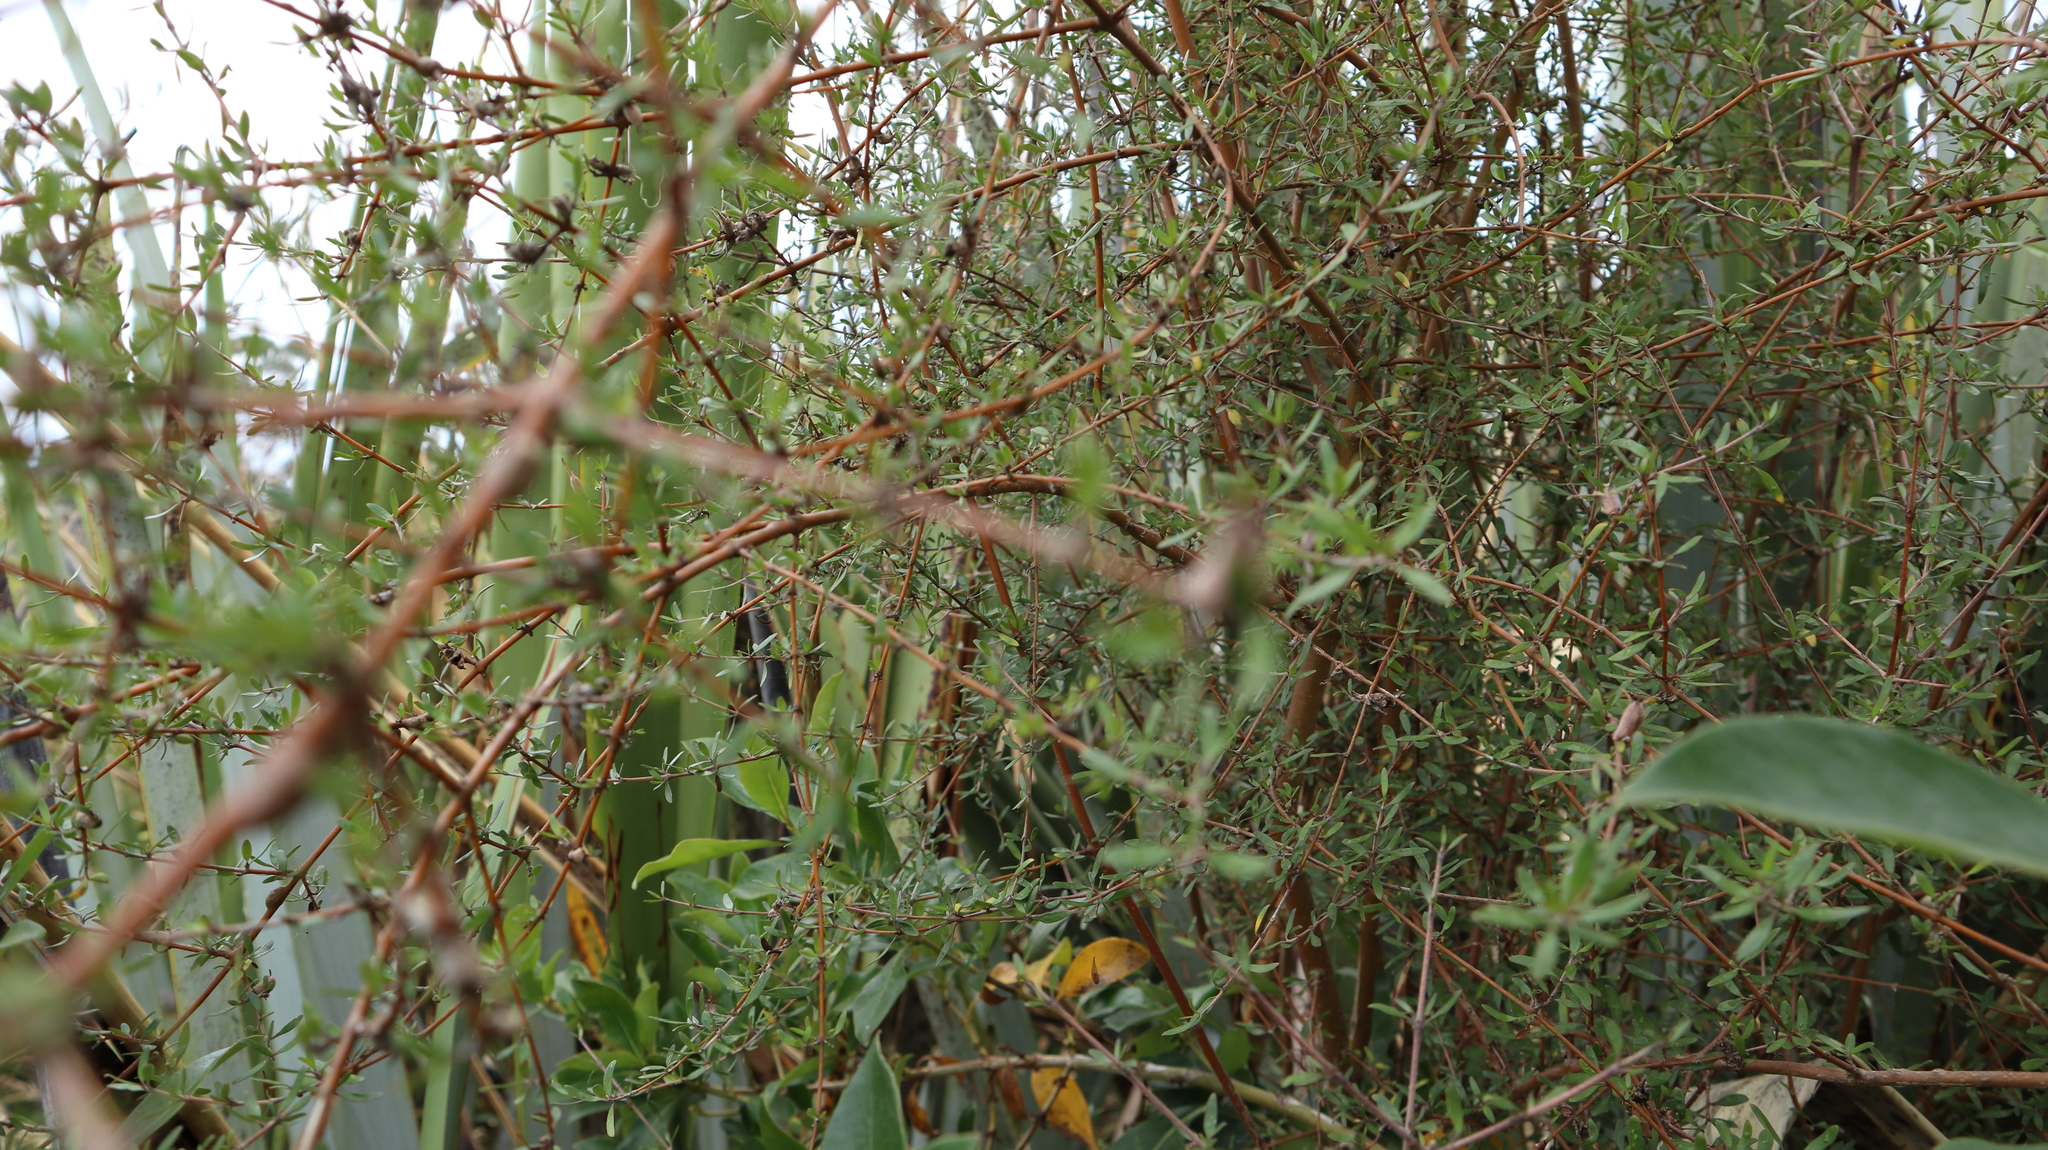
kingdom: Plantae
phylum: Tracheophyta
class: Magnoliopsida
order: Gentianales
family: Rubiaceae
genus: Coprosma
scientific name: Coprosma propinqua
